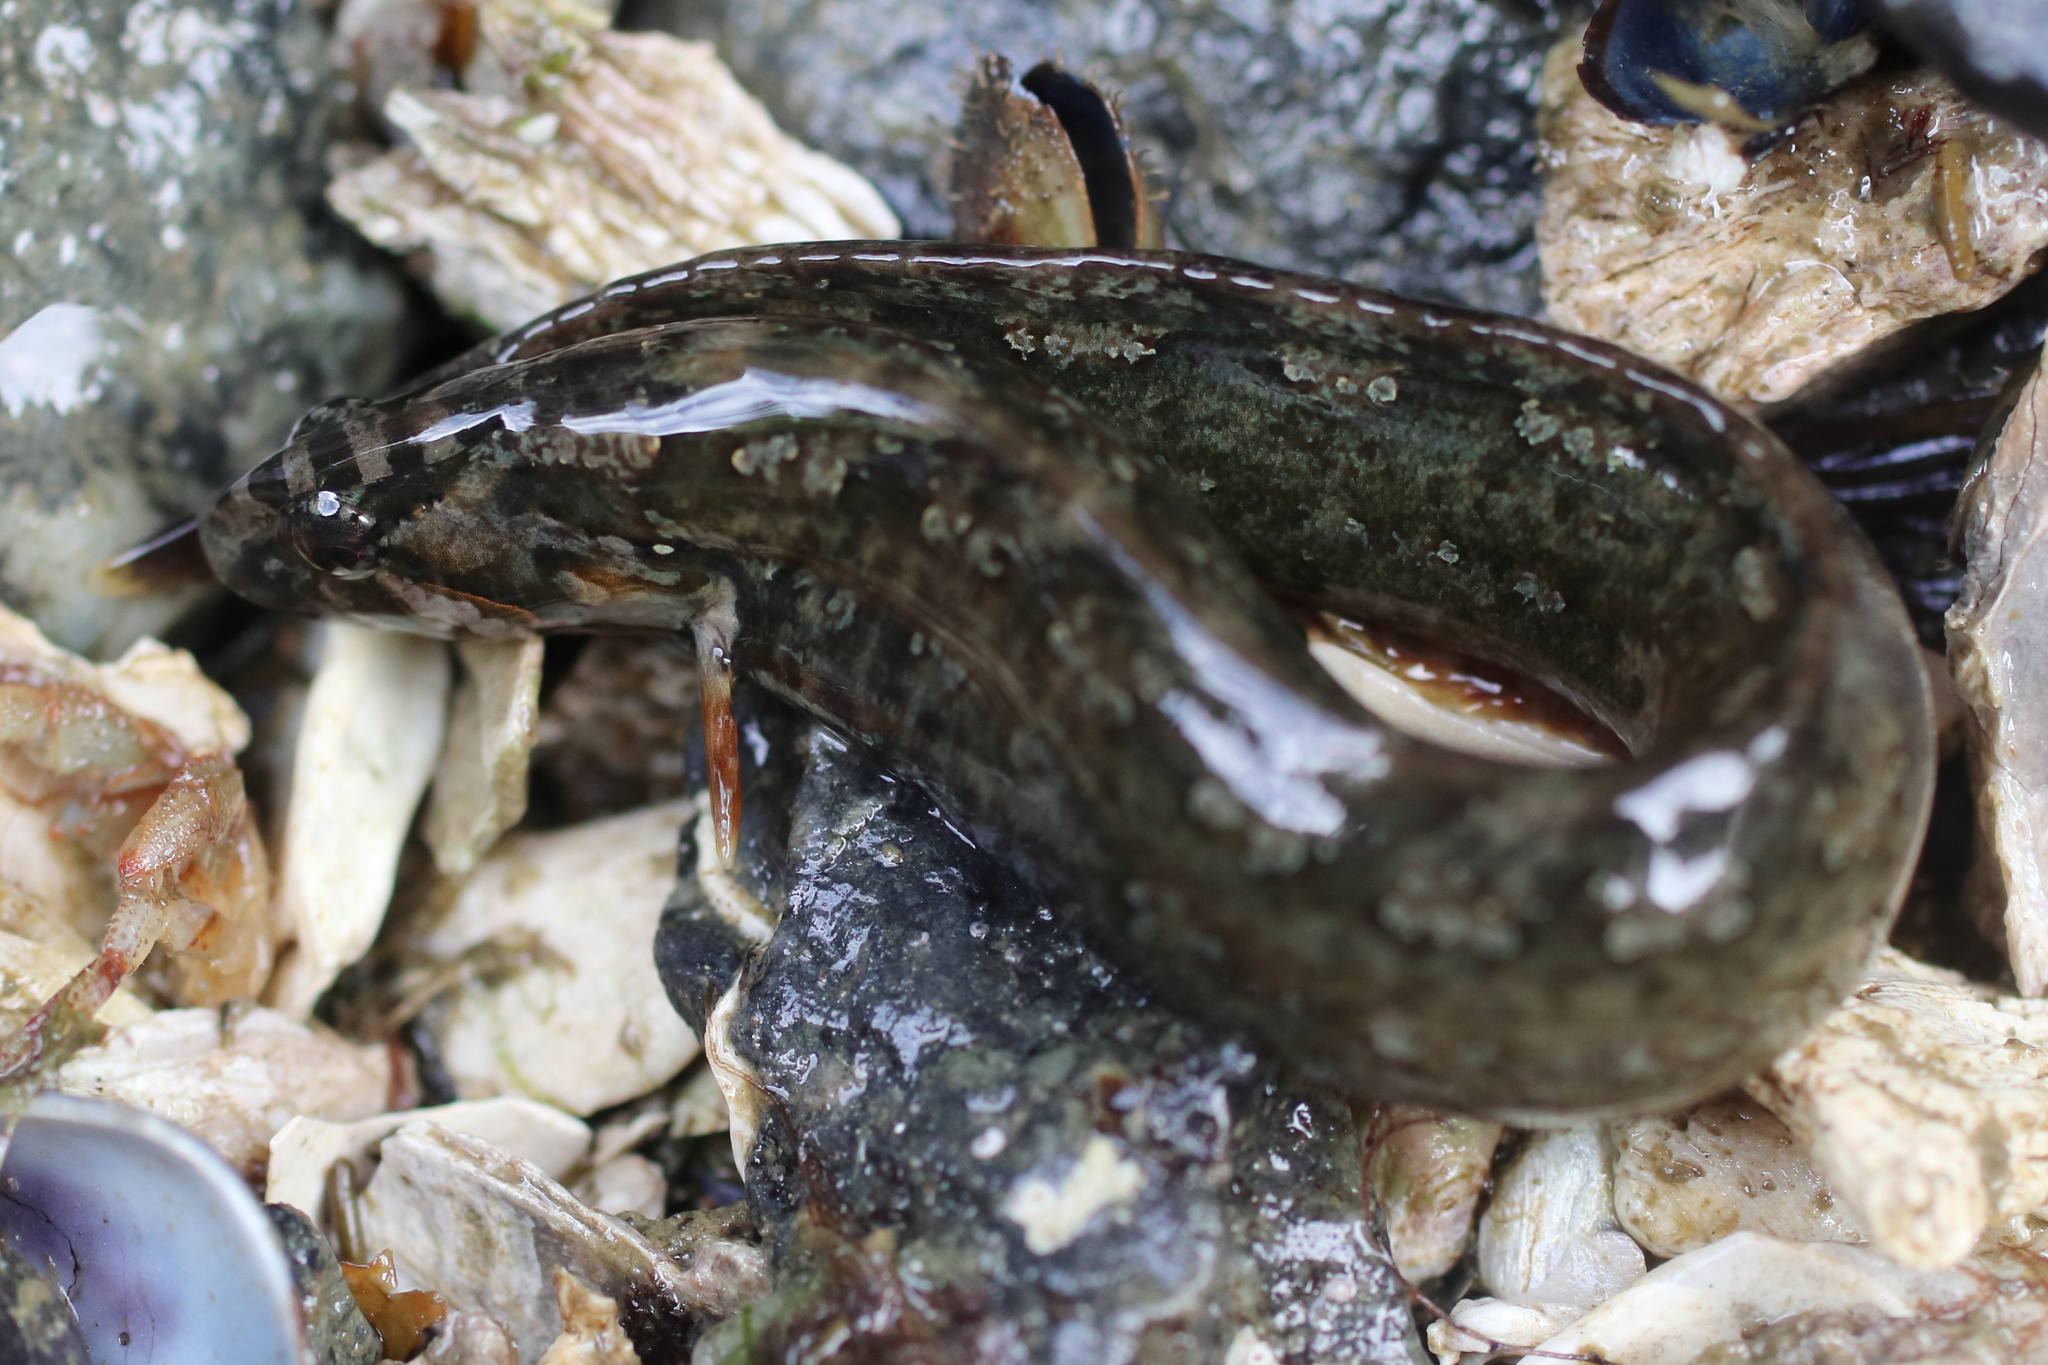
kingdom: Animalia
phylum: Chordata
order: Perciformes
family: Stichaeidae
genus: Anoplarchus
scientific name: Anoplarchus purpurescens
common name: High cockscomb
